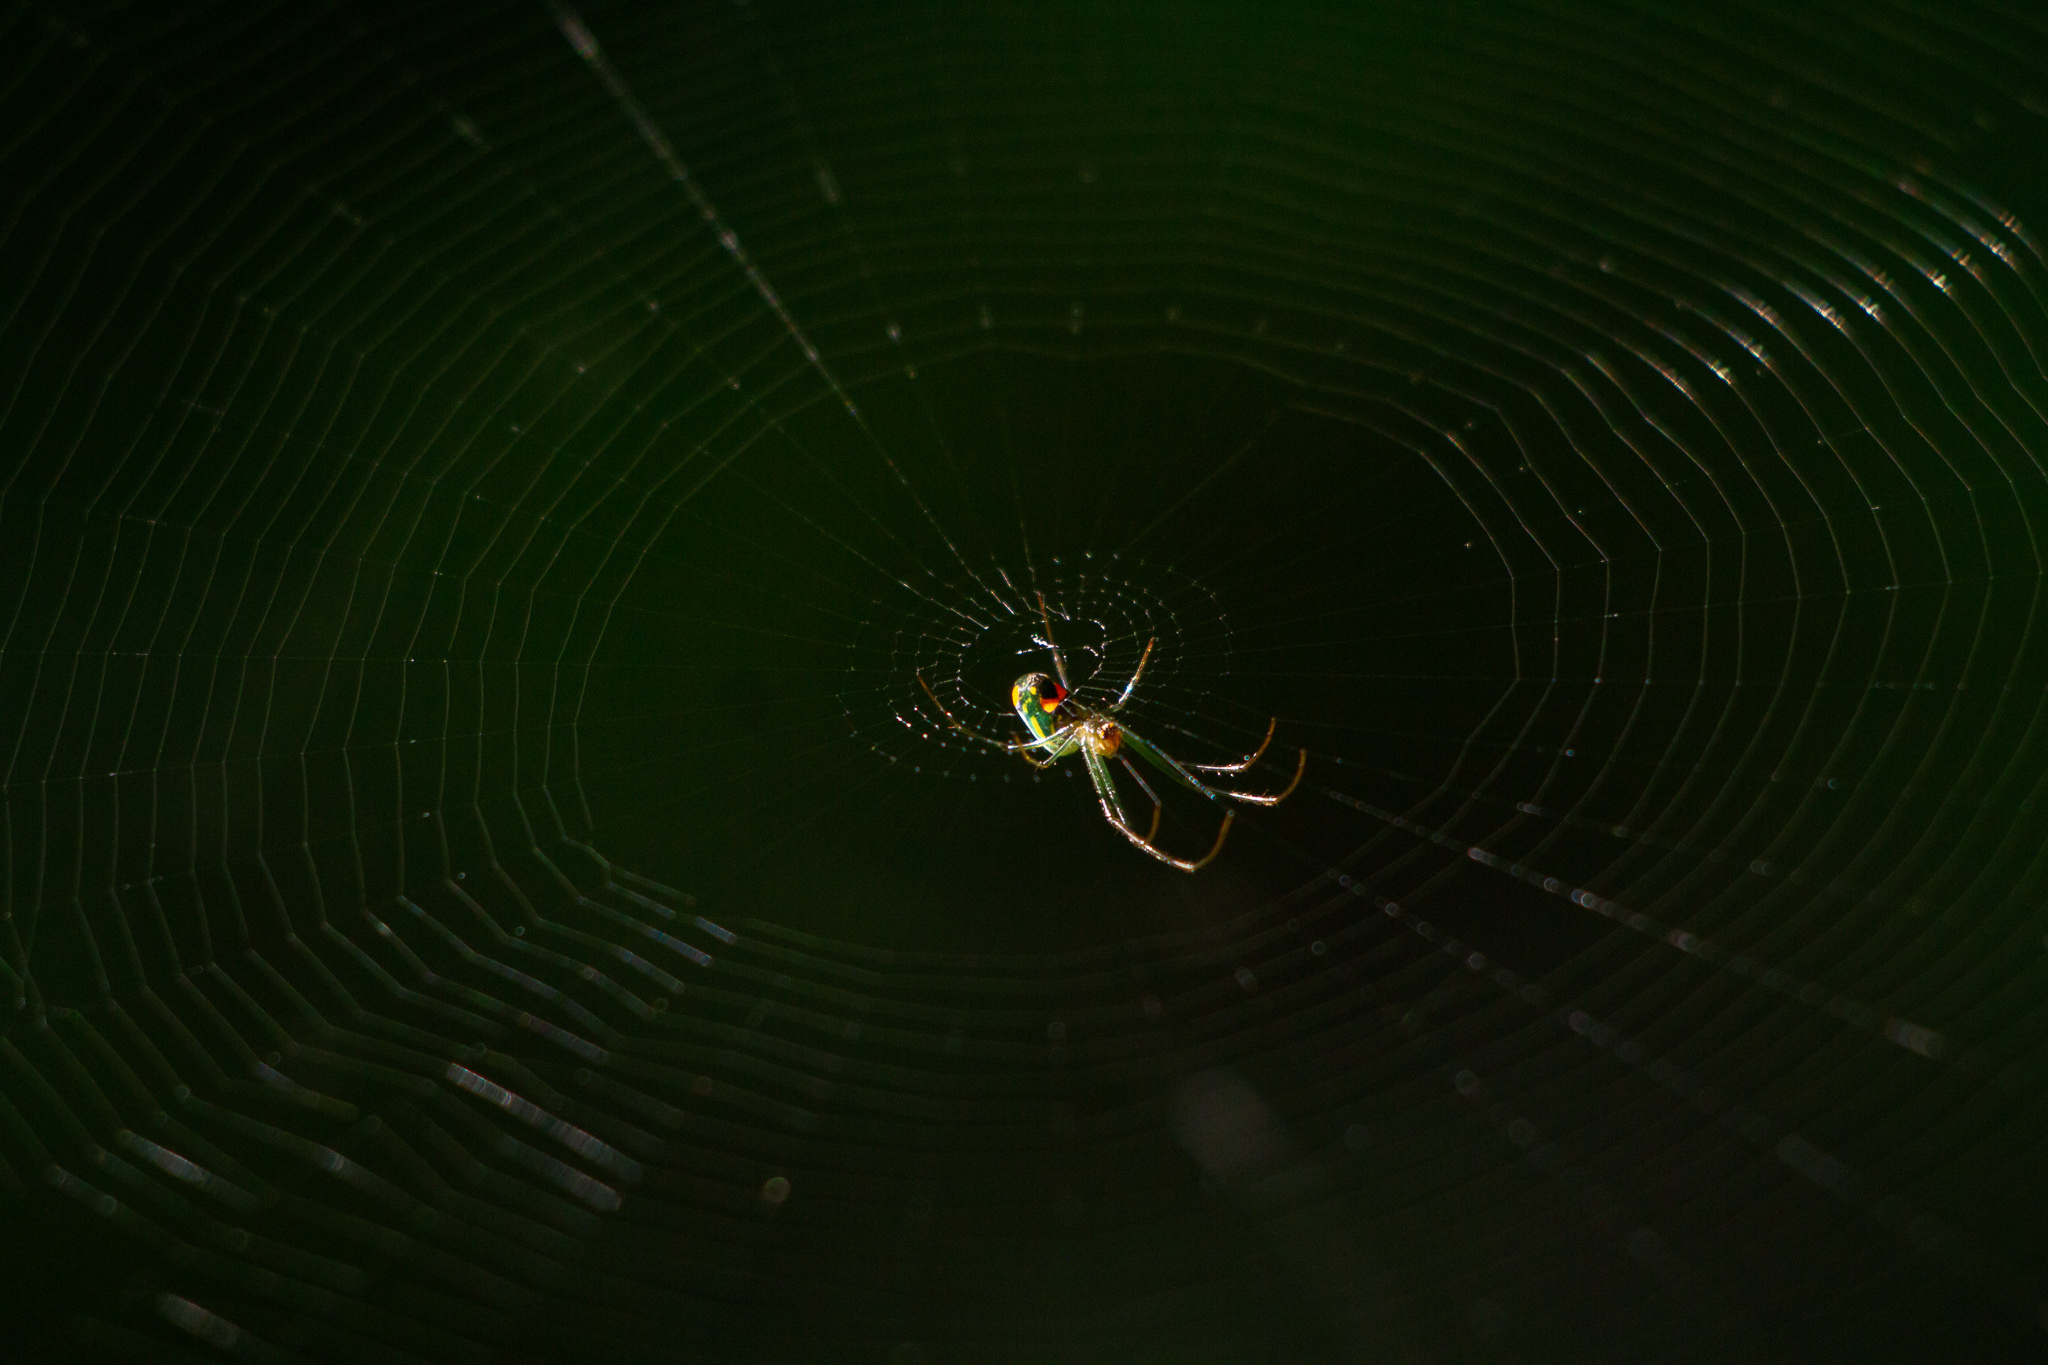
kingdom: Animalia
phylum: Arthropoda
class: Arachnida
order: Araneae
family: Tetragnathidae
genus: Leucauge
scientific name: Leucauge argyrobapta
